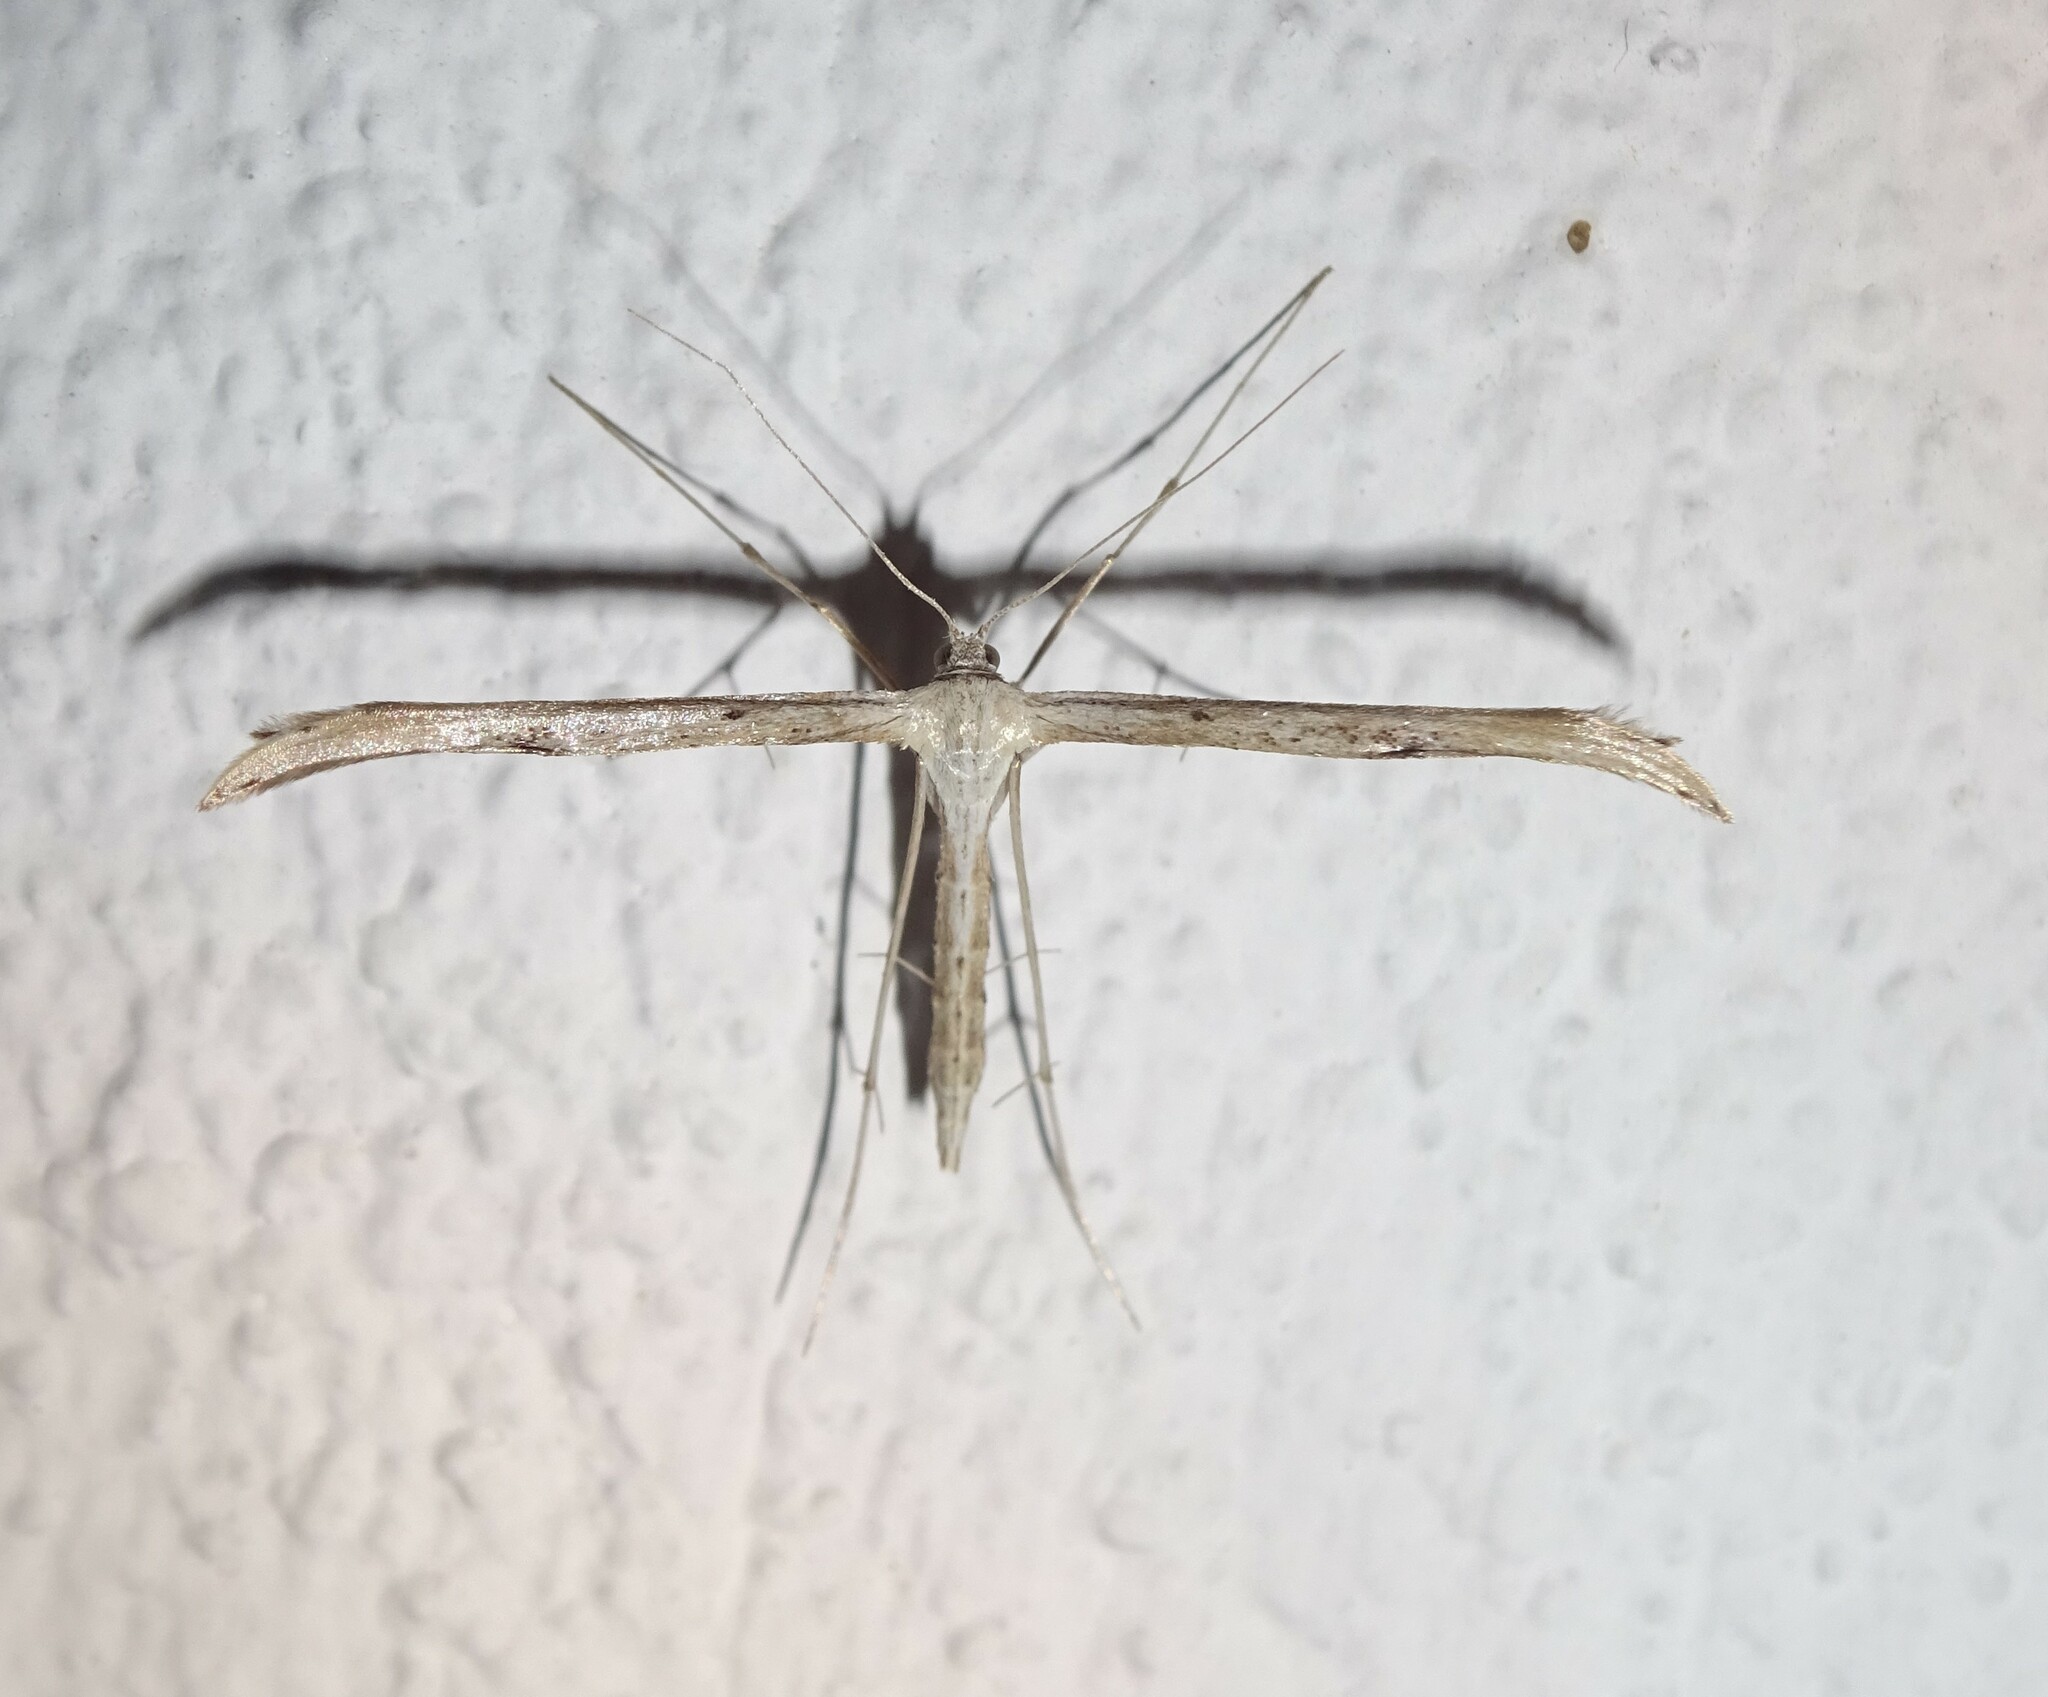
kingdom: Animalia
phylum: Arthropoda
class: Insecta
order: Lepidoptera
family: Pterophoridae
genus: Emmelina
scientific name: Emmelina monodactyla
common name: Common plume
